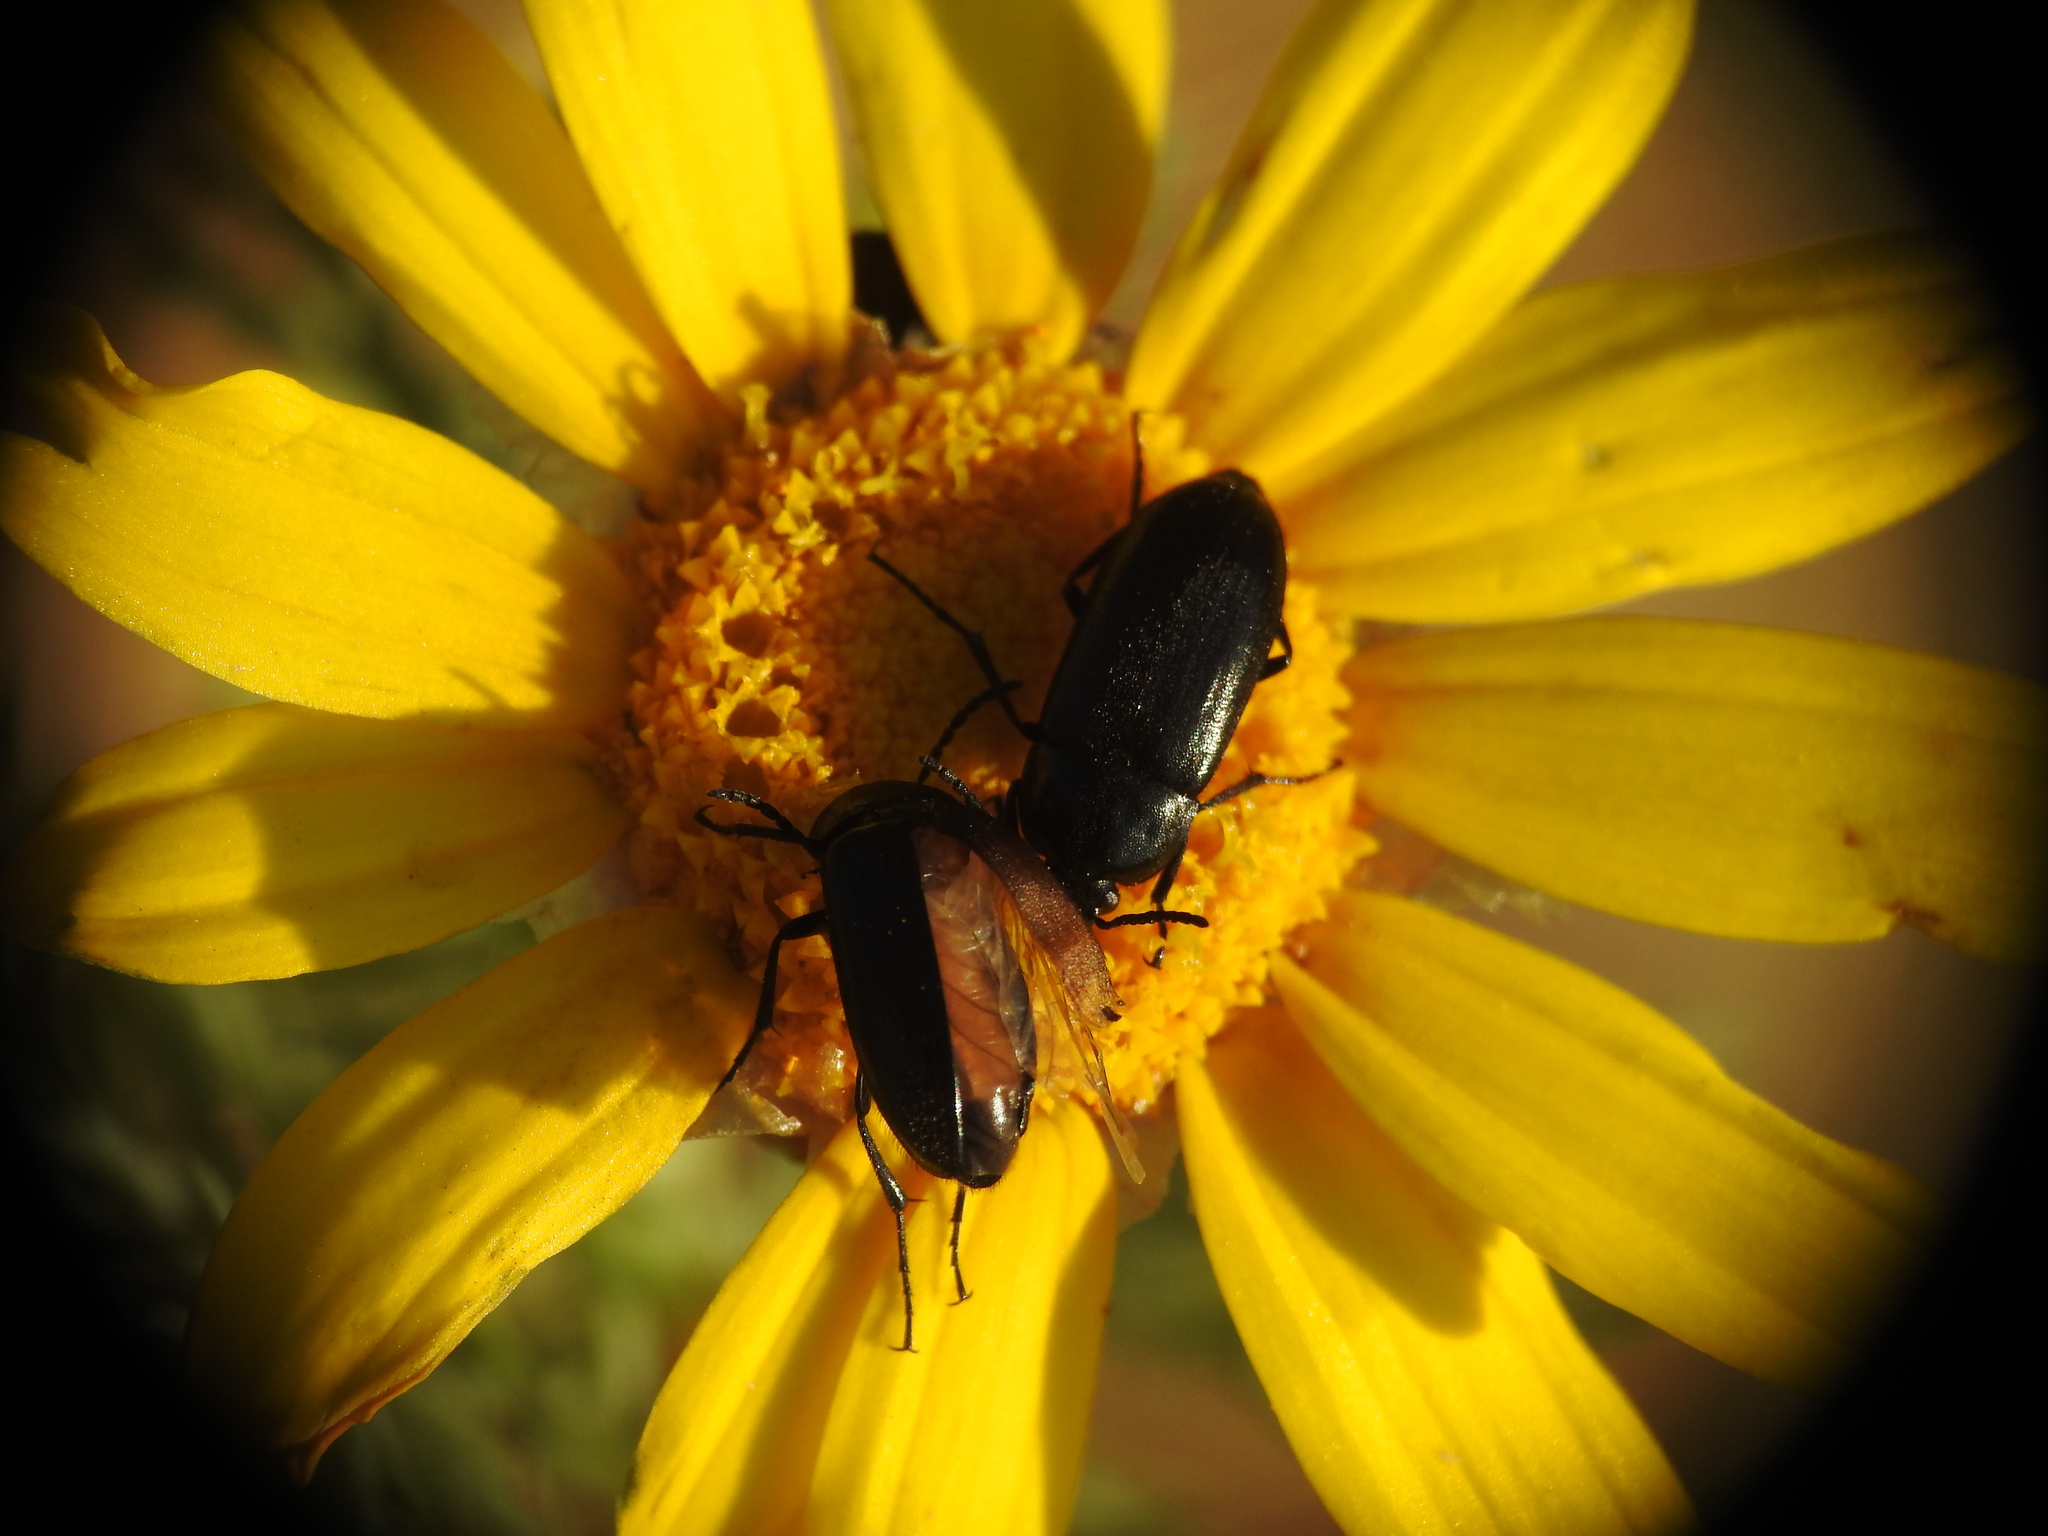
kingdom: Animalia
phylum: Arthropoda
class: Insecta
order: Coleoptera
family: Tenebrionidae
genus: Podonta
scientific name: Podonta aubei
